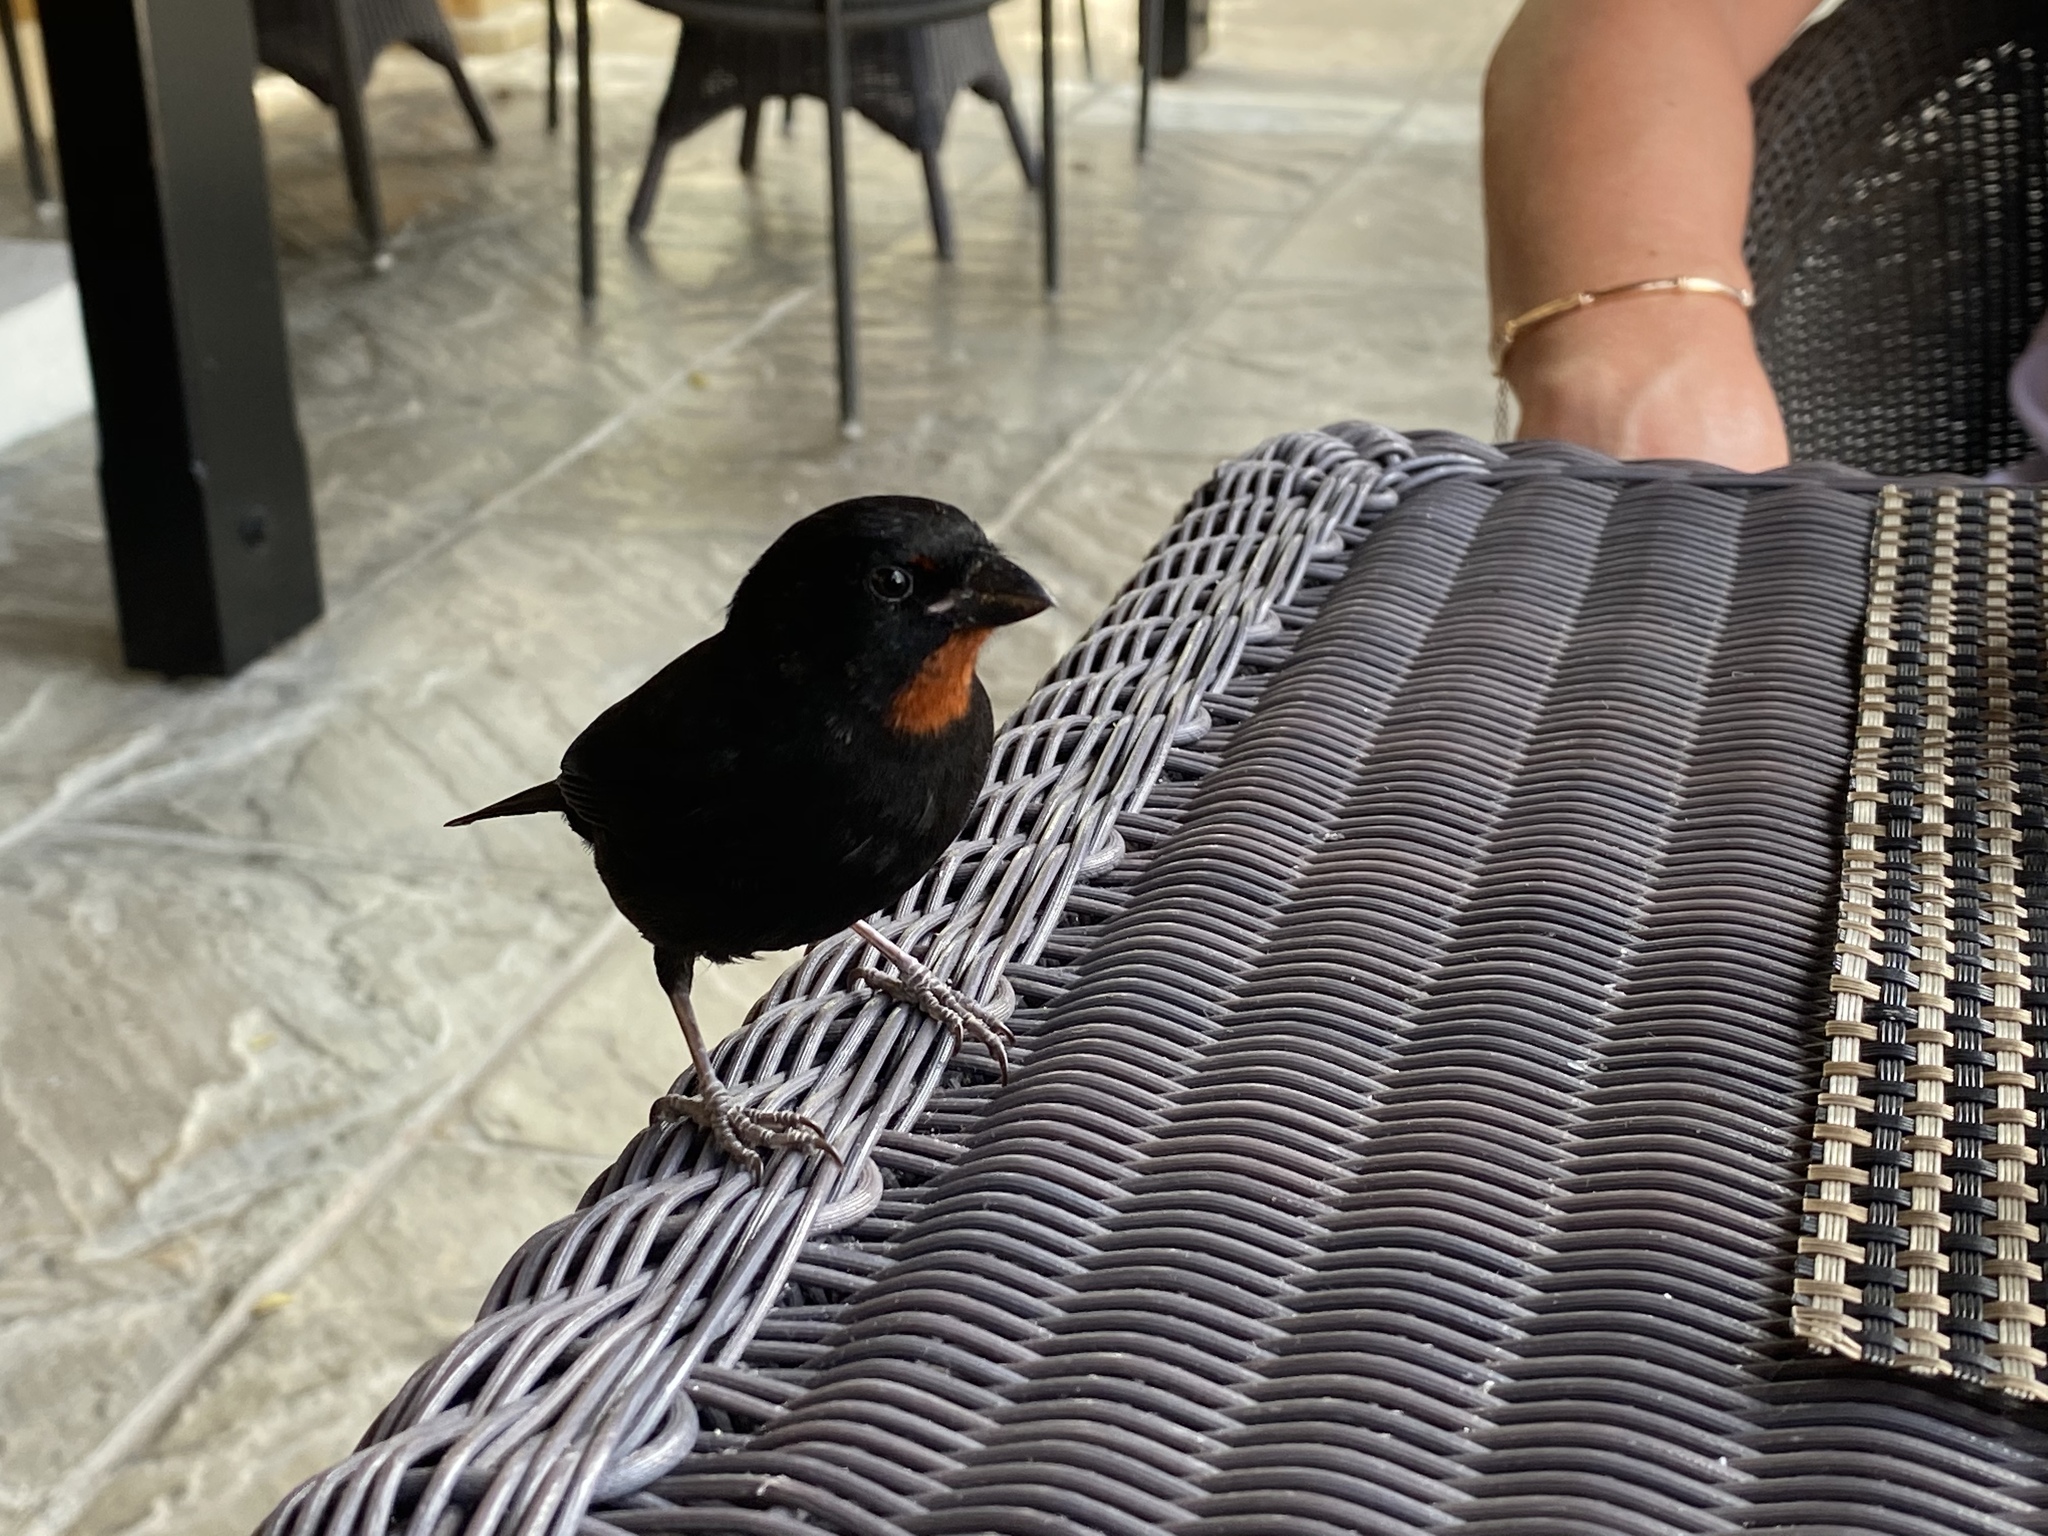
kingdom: Animalia
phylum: Chordata
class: Aves
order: Passeriformes
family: Thraupidae
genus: Loxigilla
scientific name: Loxigilla noctis
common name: Lesser antillean bullfinch
